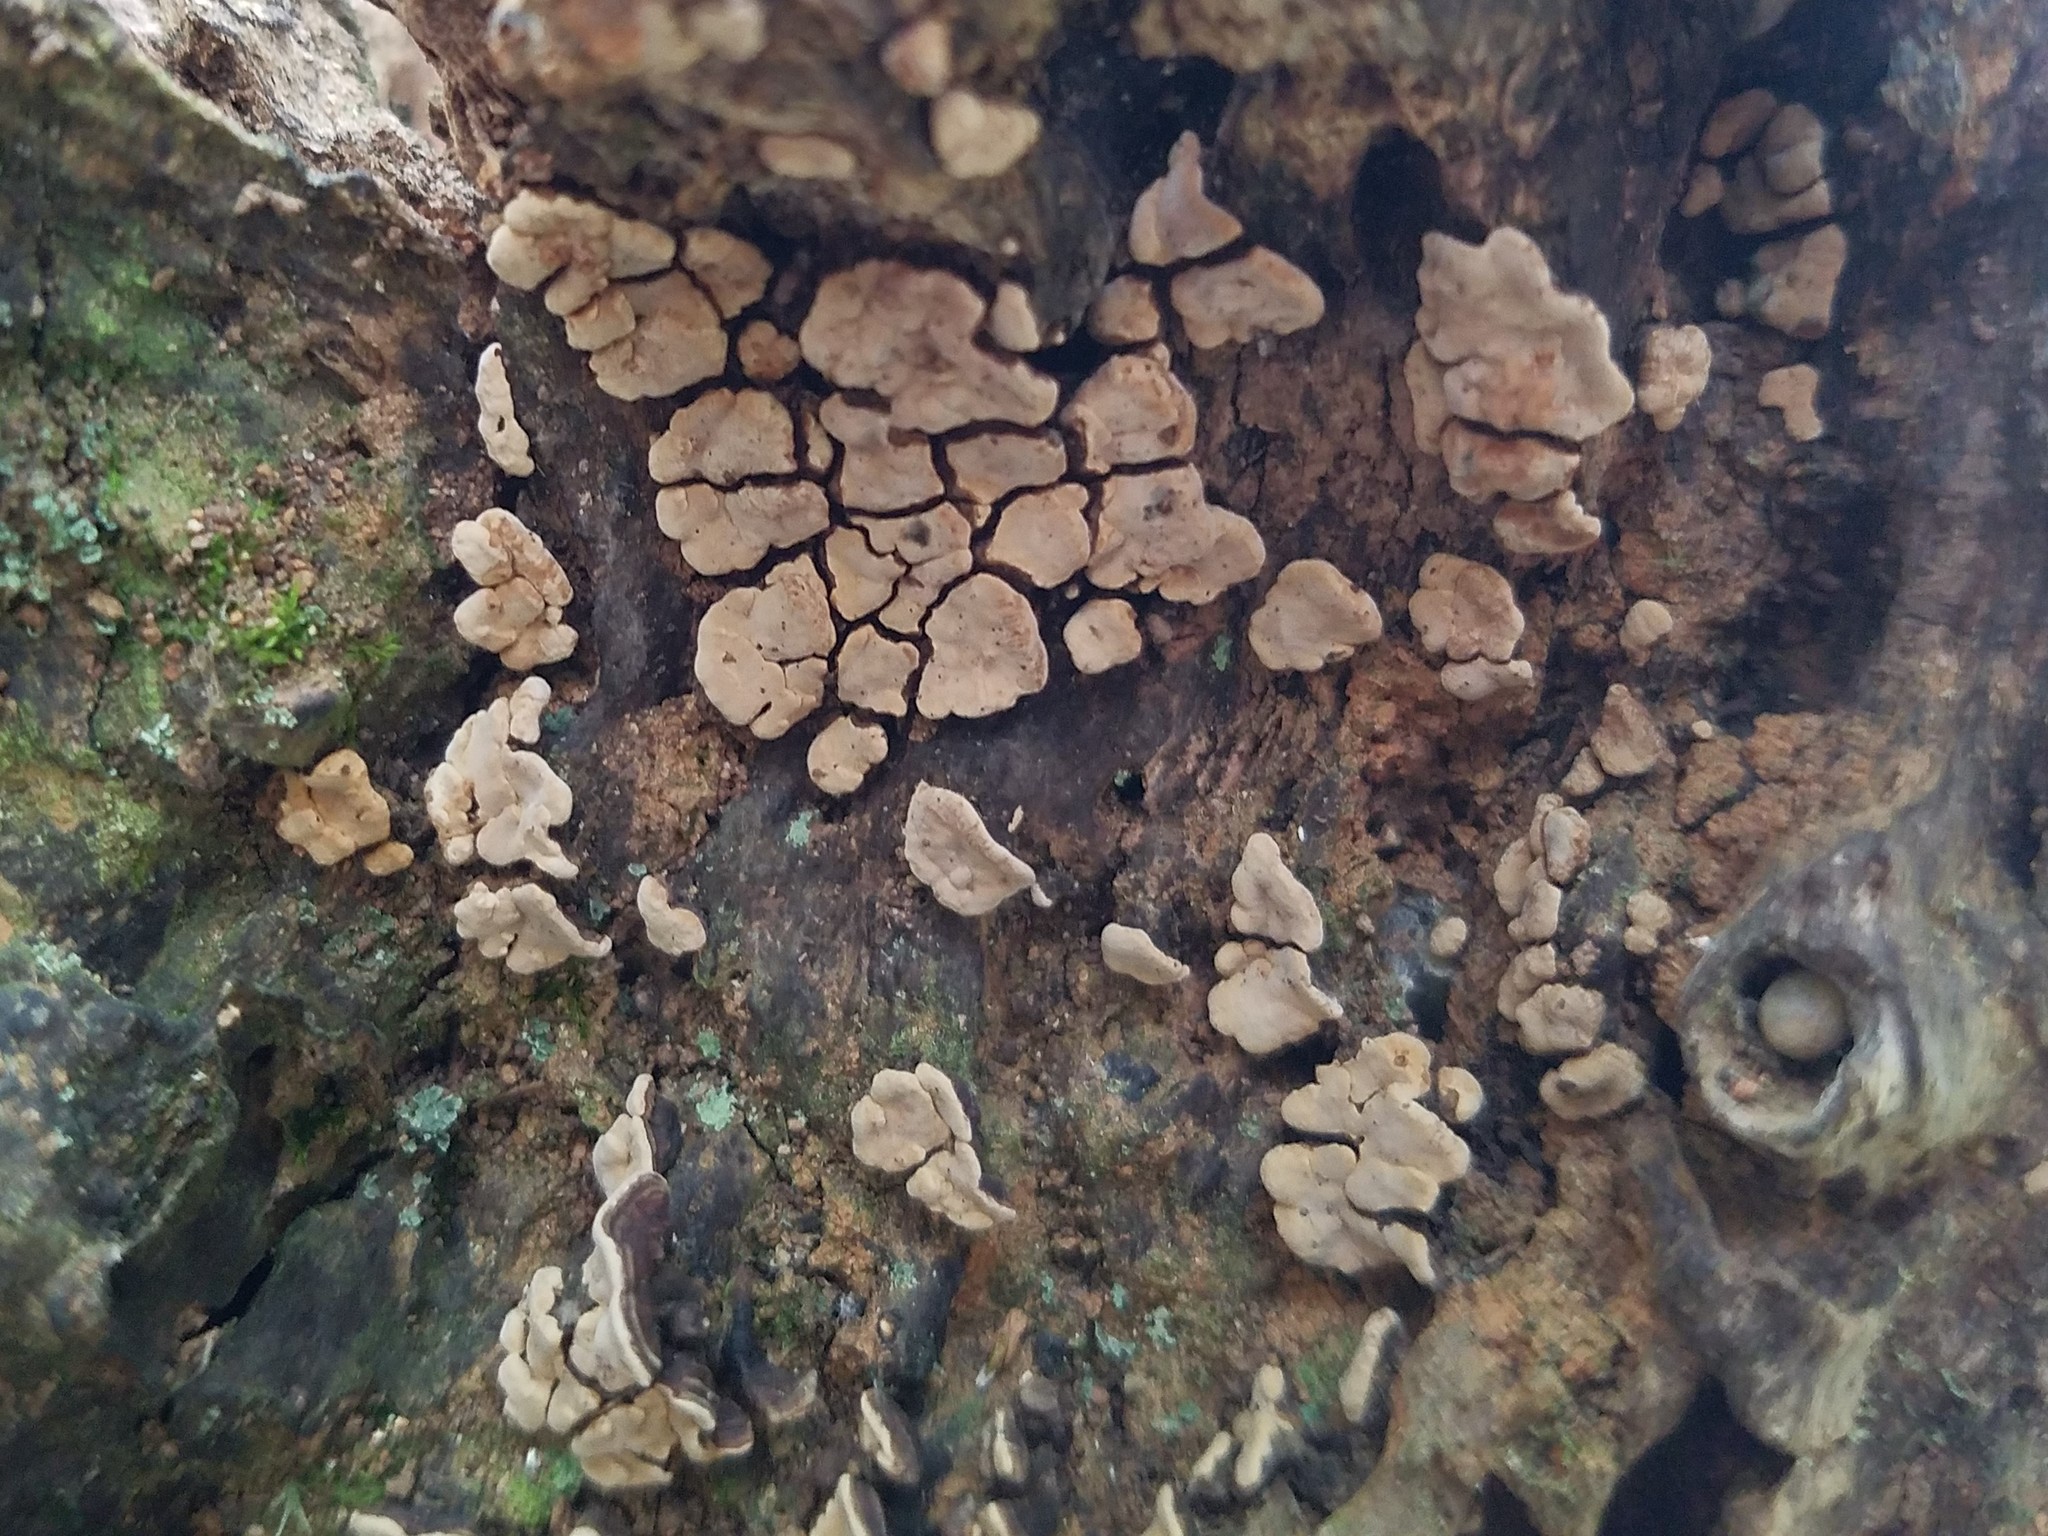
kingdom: Fungi
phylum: Basidiomycota
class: Agaricomycetes
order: Russulales
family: Stereaceae
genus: Xylobolus
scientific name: Xylobolus frustulatus
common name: Ceramic parchment
